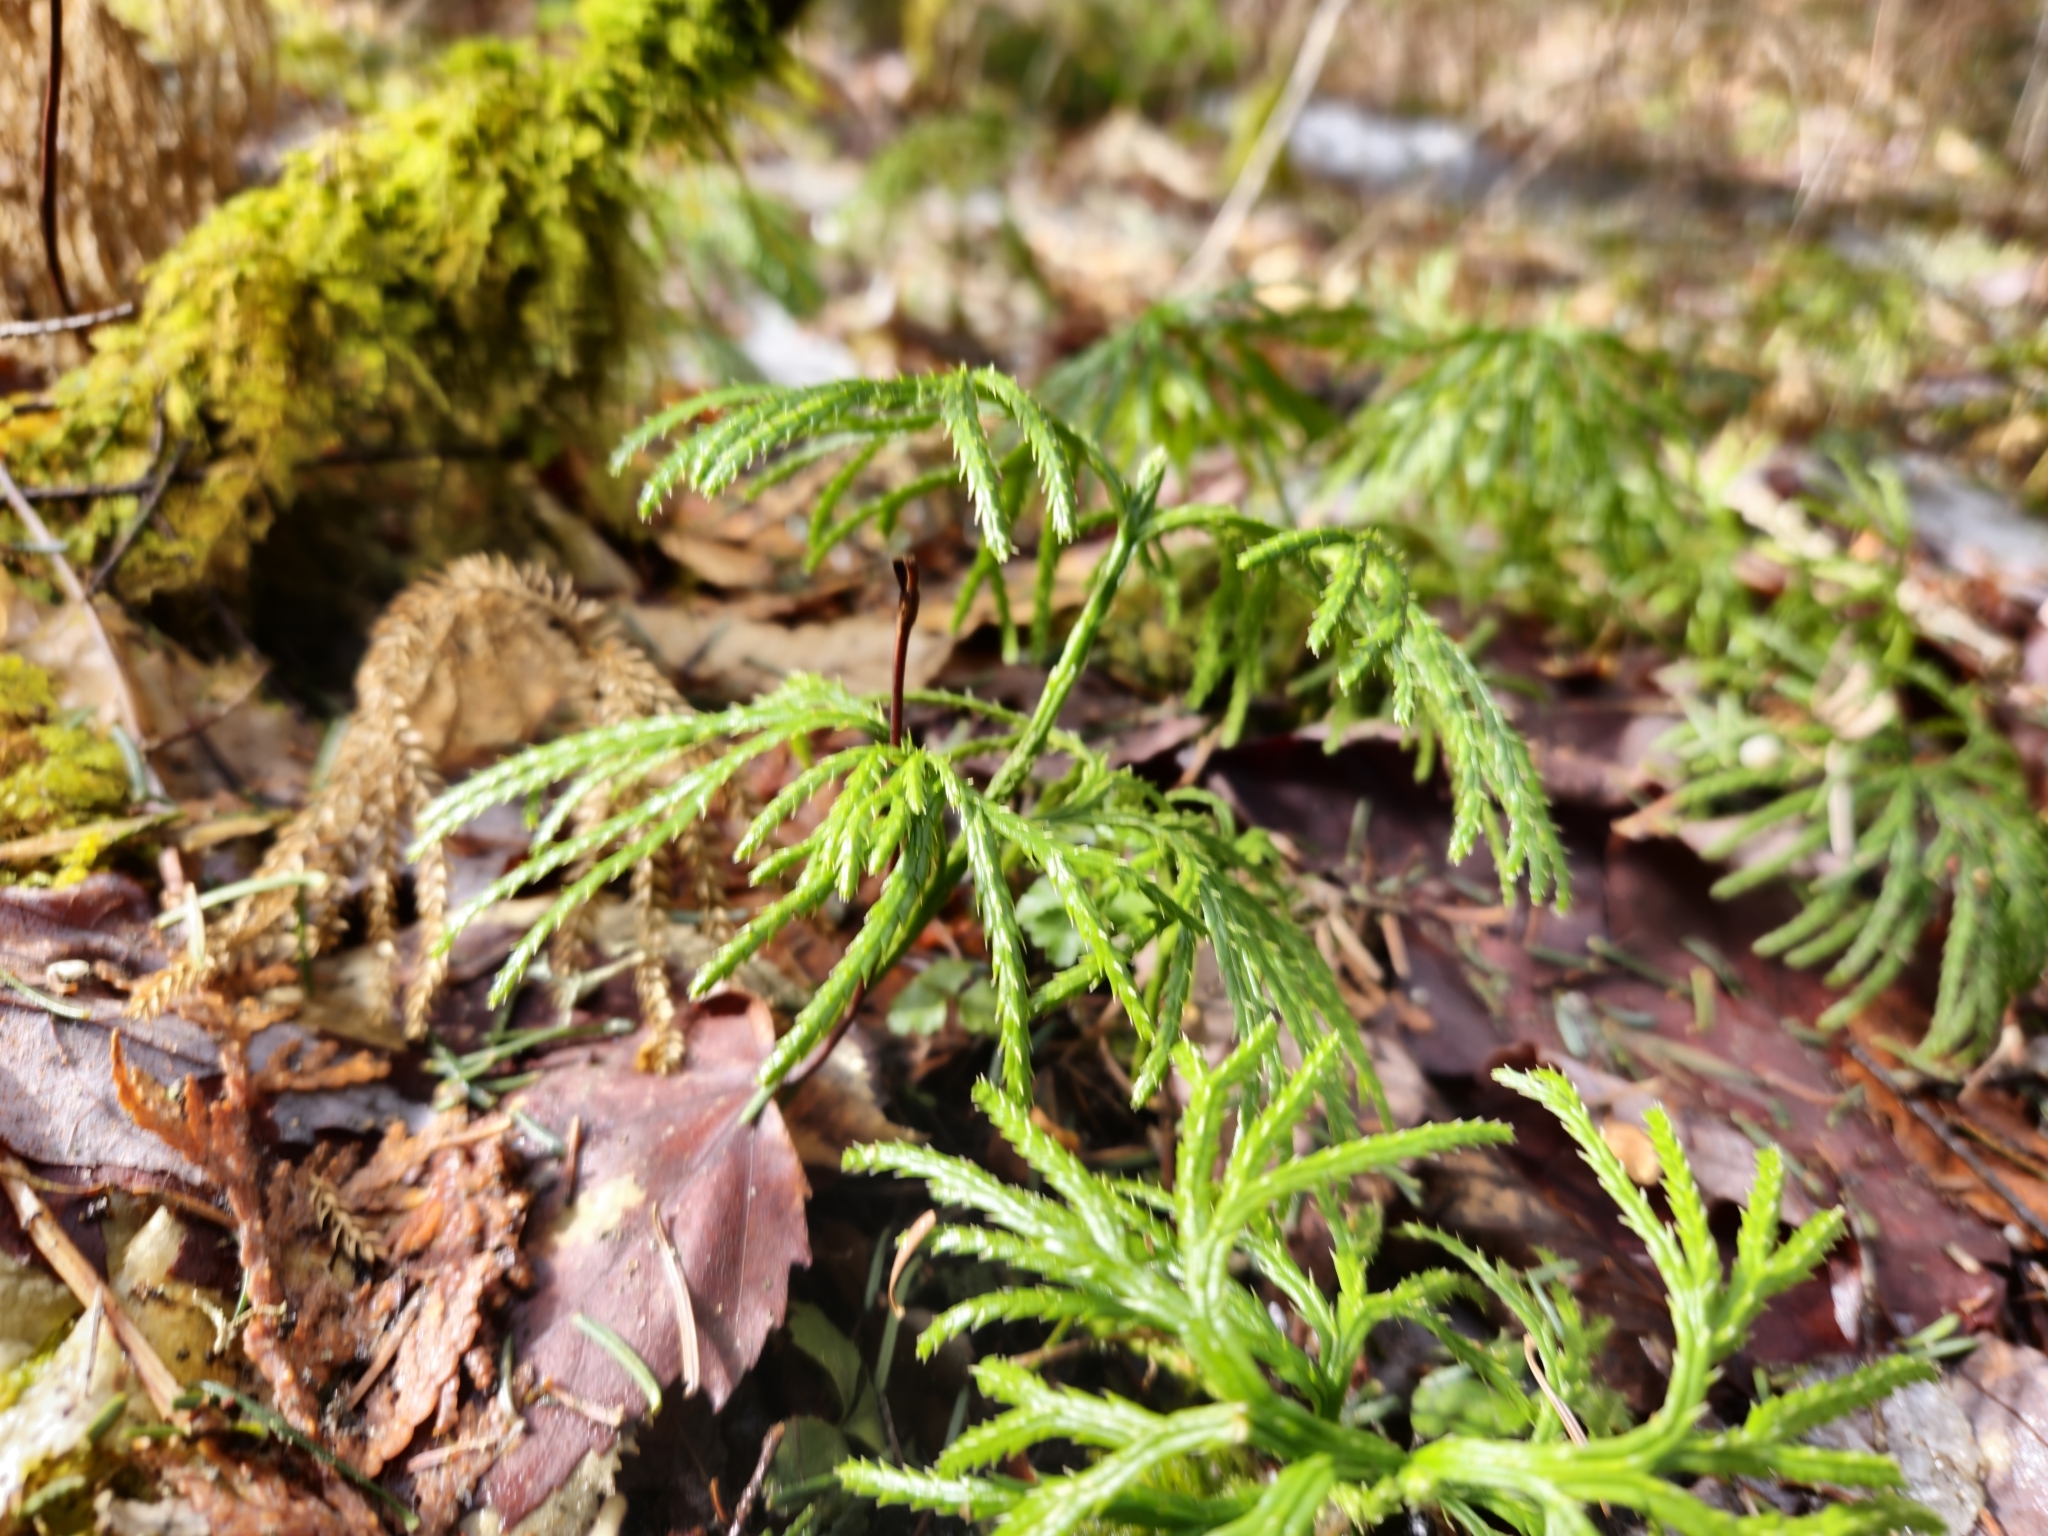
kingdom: Plantae
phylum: Tracheophyta
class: Lycopodiopsida
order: Lycopodiales
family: Lycopodiaceae
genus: Diphasiastrum
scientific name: Diphasiastrum digitatum
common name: Southern running-pine
